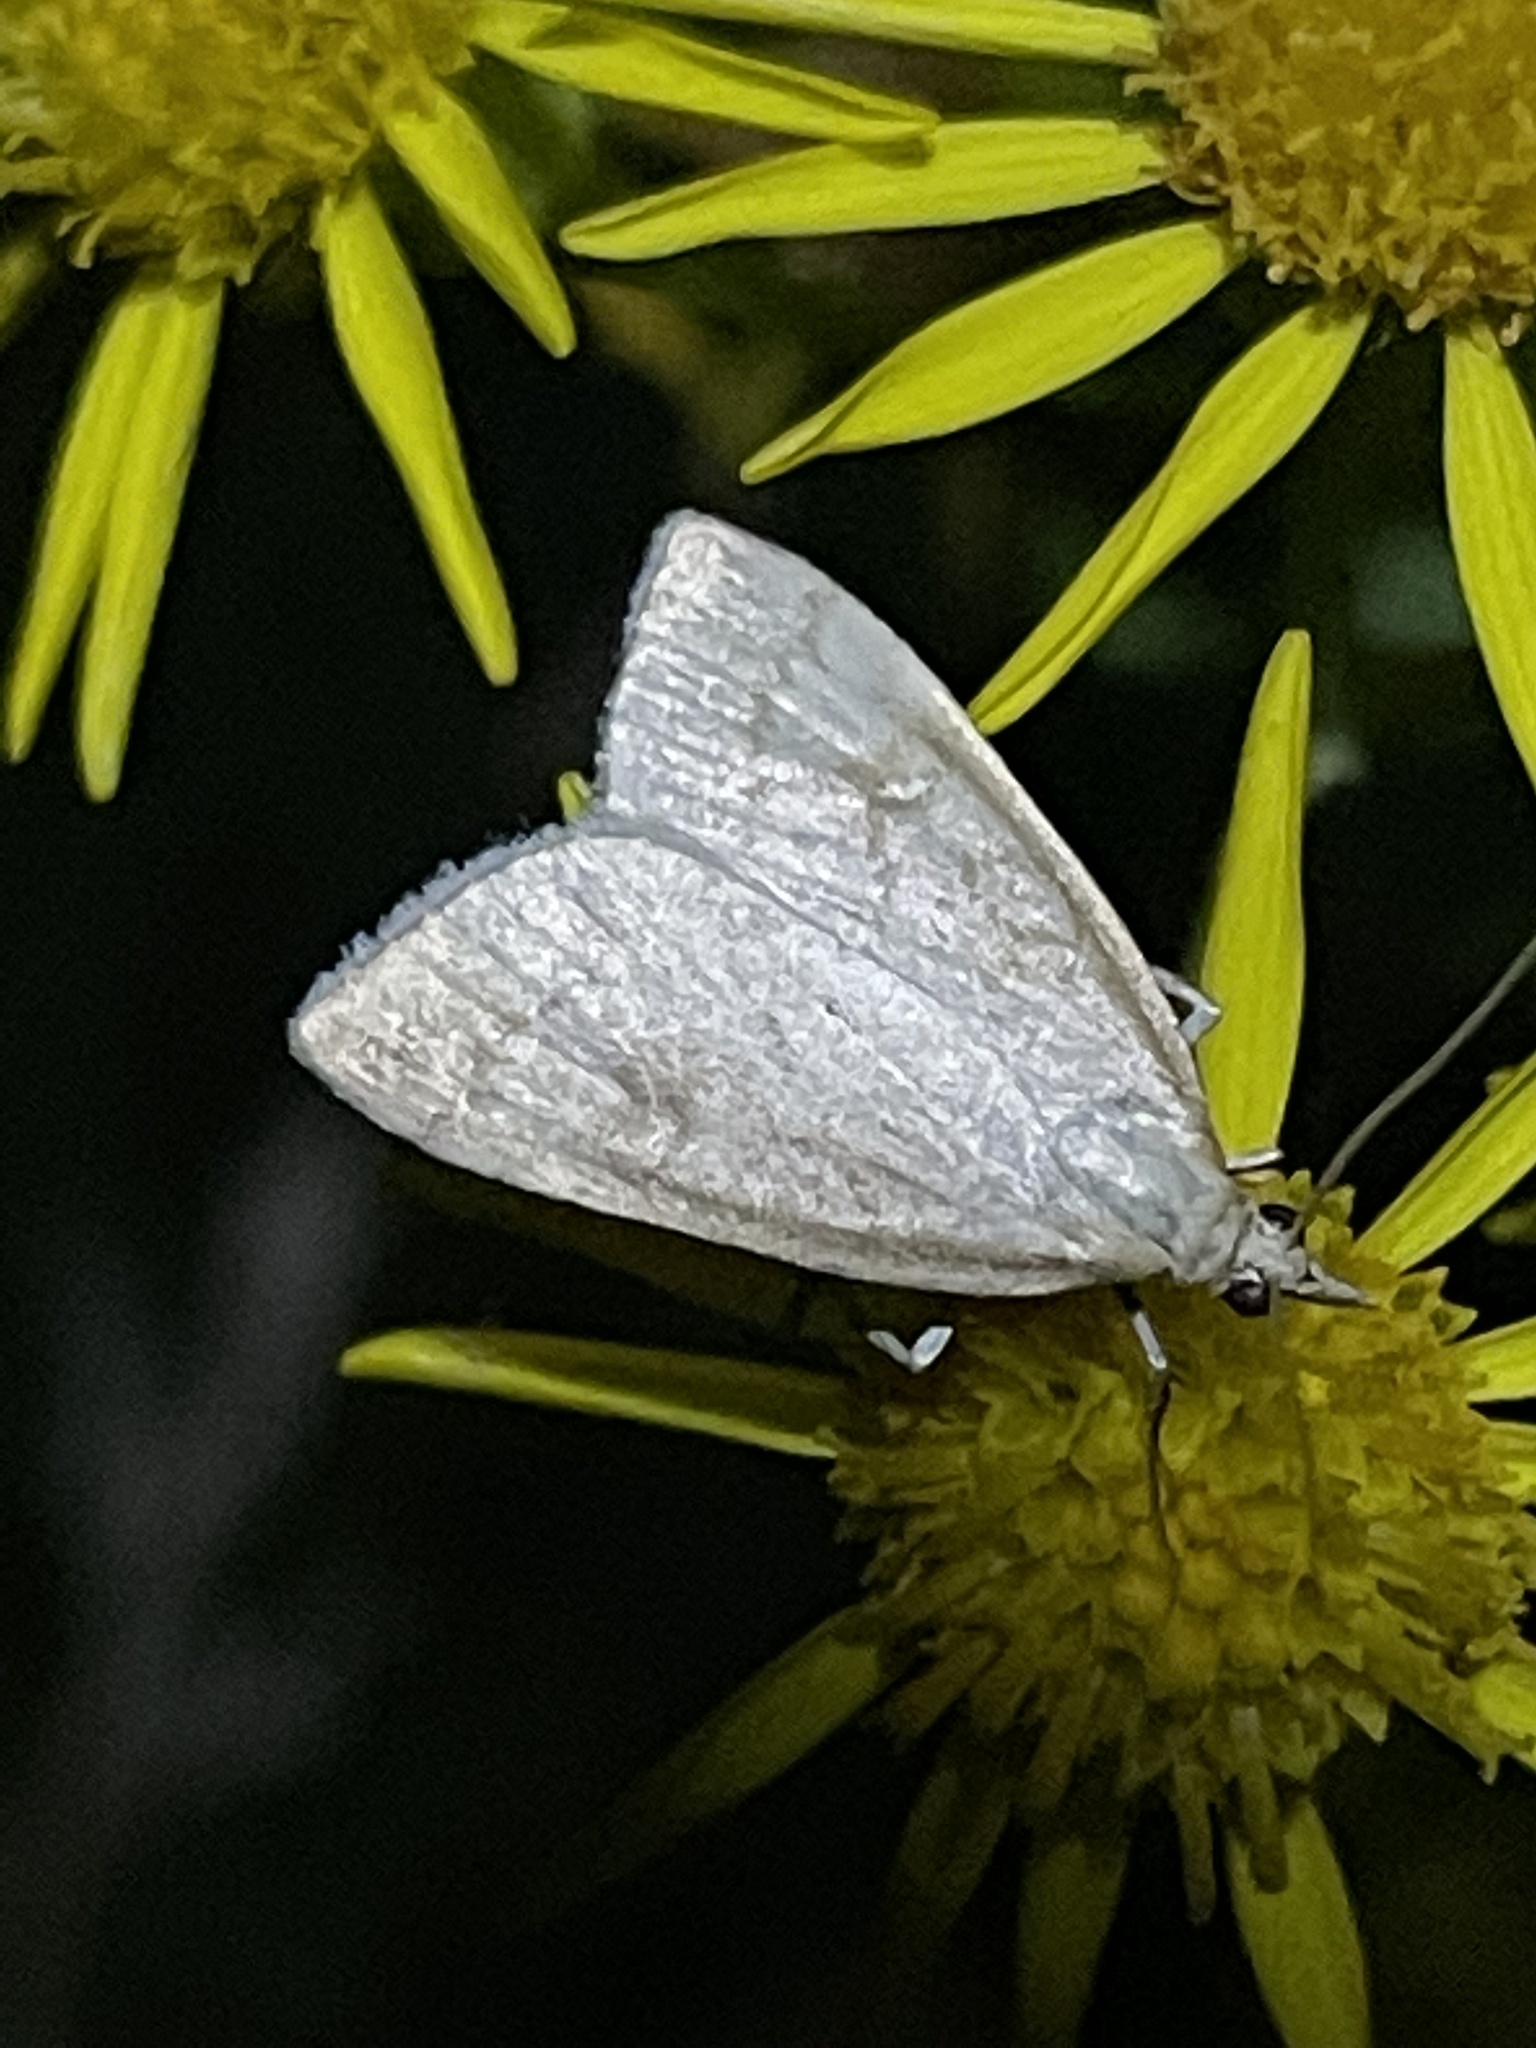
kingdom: Animalia
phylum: Arthropoda
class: Insecta
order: Lepidoptera
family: Crambidae
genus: Udea
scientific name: Udea lutealis
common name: Pale straw pearl
